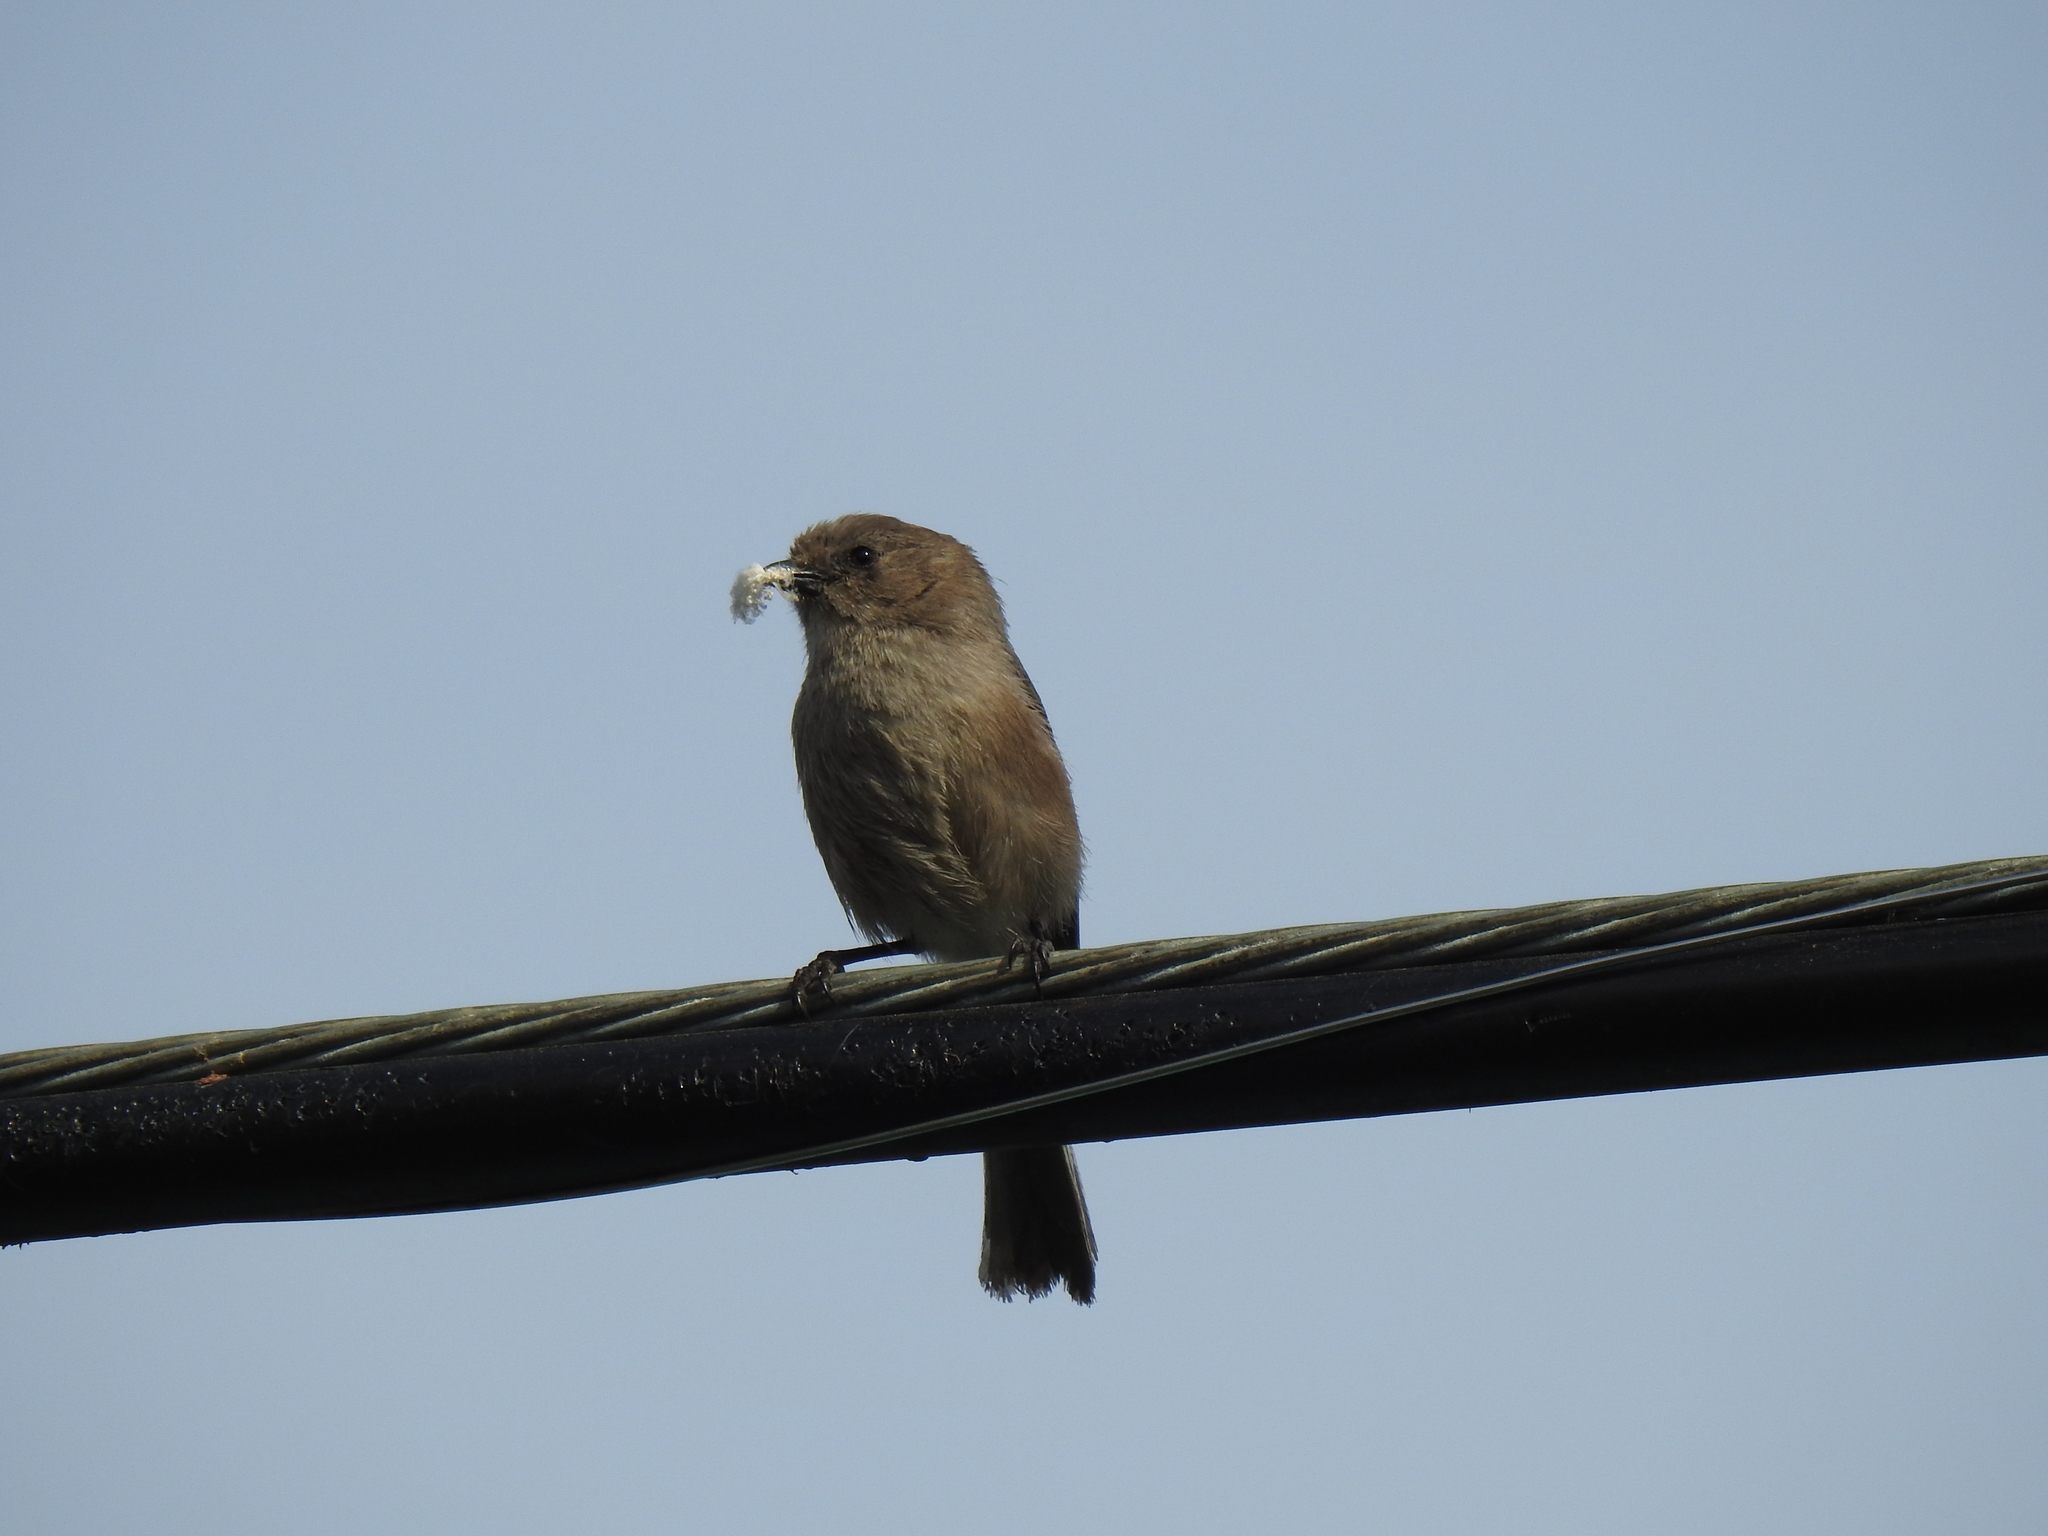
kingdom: Animalia
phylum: Chordata
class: Aves
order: Passeriformes
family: Aegithalidae
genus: Psaltriparus
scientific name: Psaltriparus minimus
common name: American bushtit
